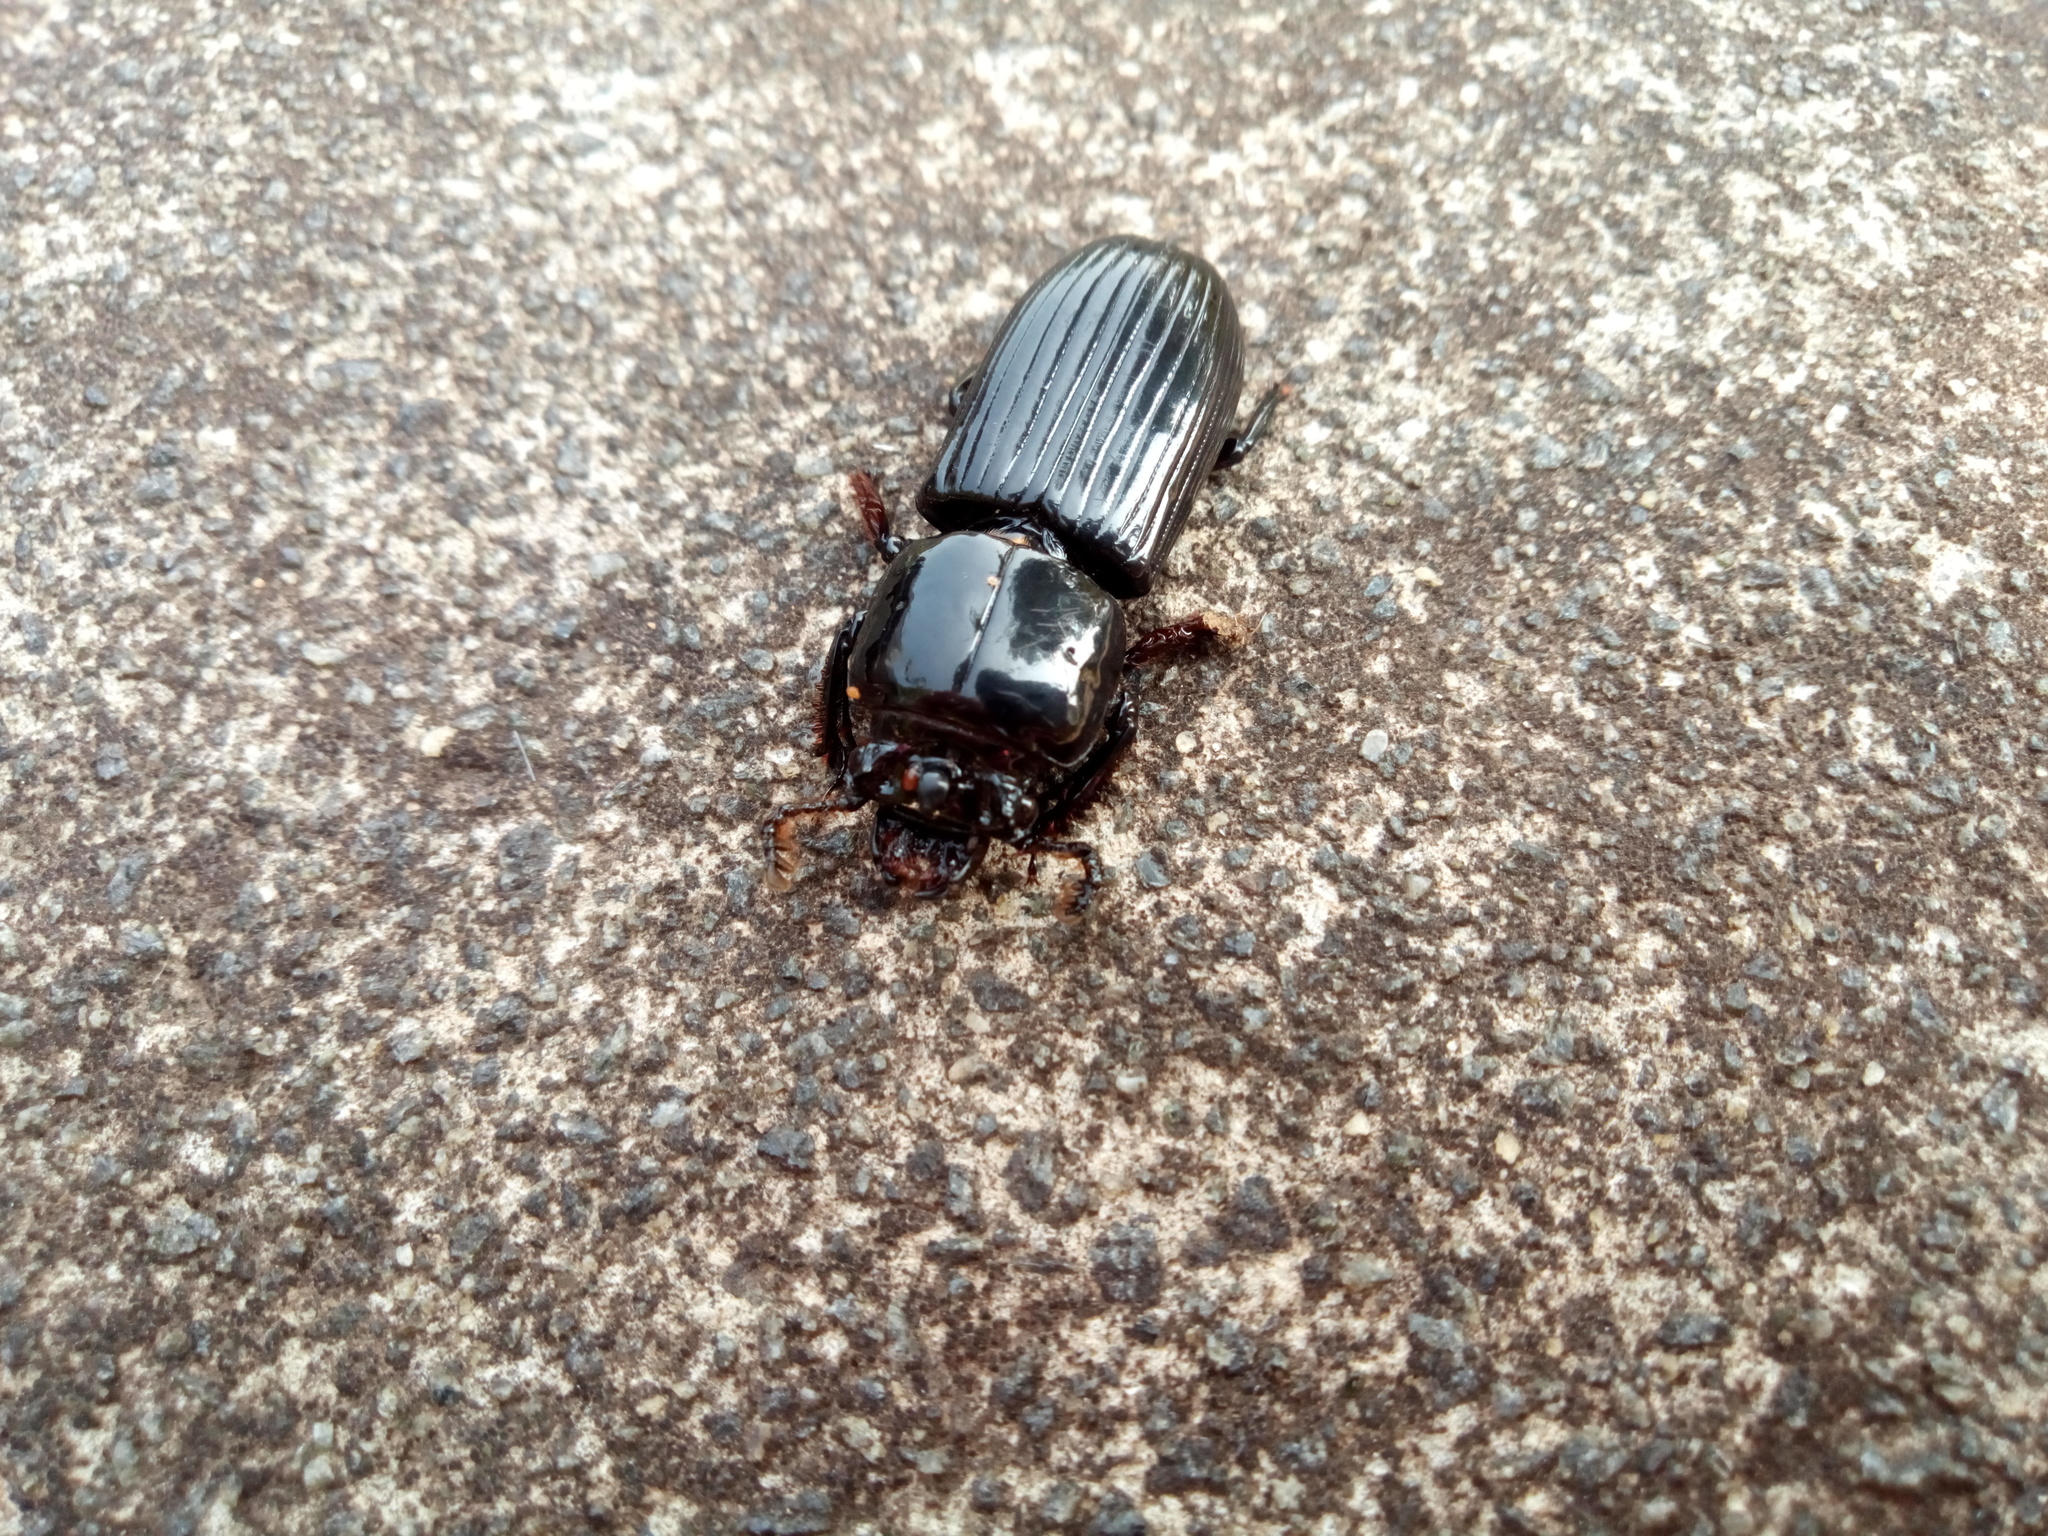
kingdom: Animalia
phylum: Arthropoda
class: Insecta
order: Coleoptera
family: Passalidae
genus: Odontotaenius
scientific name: Odontotaenius disjunctus
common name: Patent leather beetle
